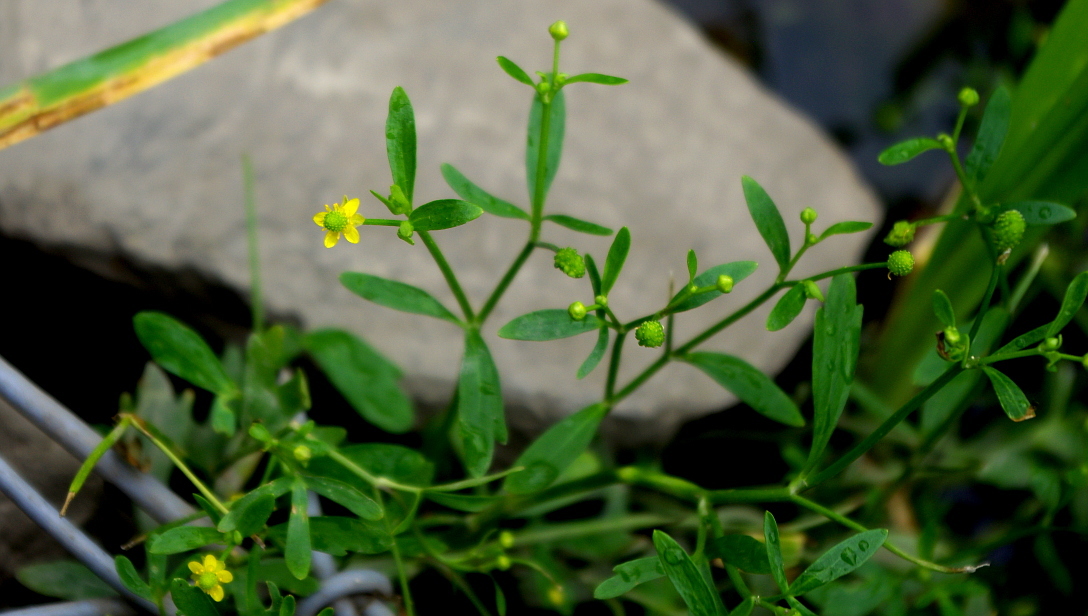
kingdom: Plantae
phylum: Tracheophyta
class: Magnoliopsida
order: Ranunculales
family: Ranunculaceae
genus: Ranunculus
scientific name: Ranunculus sceleratus
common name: Celery-leaved buttercup
